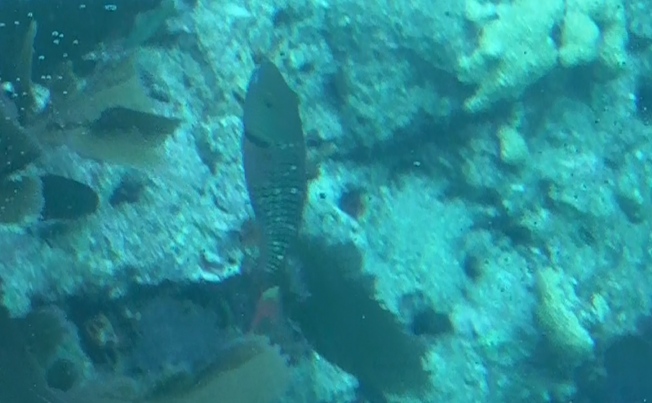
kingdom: Animalia
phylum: Chordata
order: Perciformes
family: Scaridae
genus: Sparisoma
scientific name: Sparisoma viride
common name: Stoplight parrotfish
